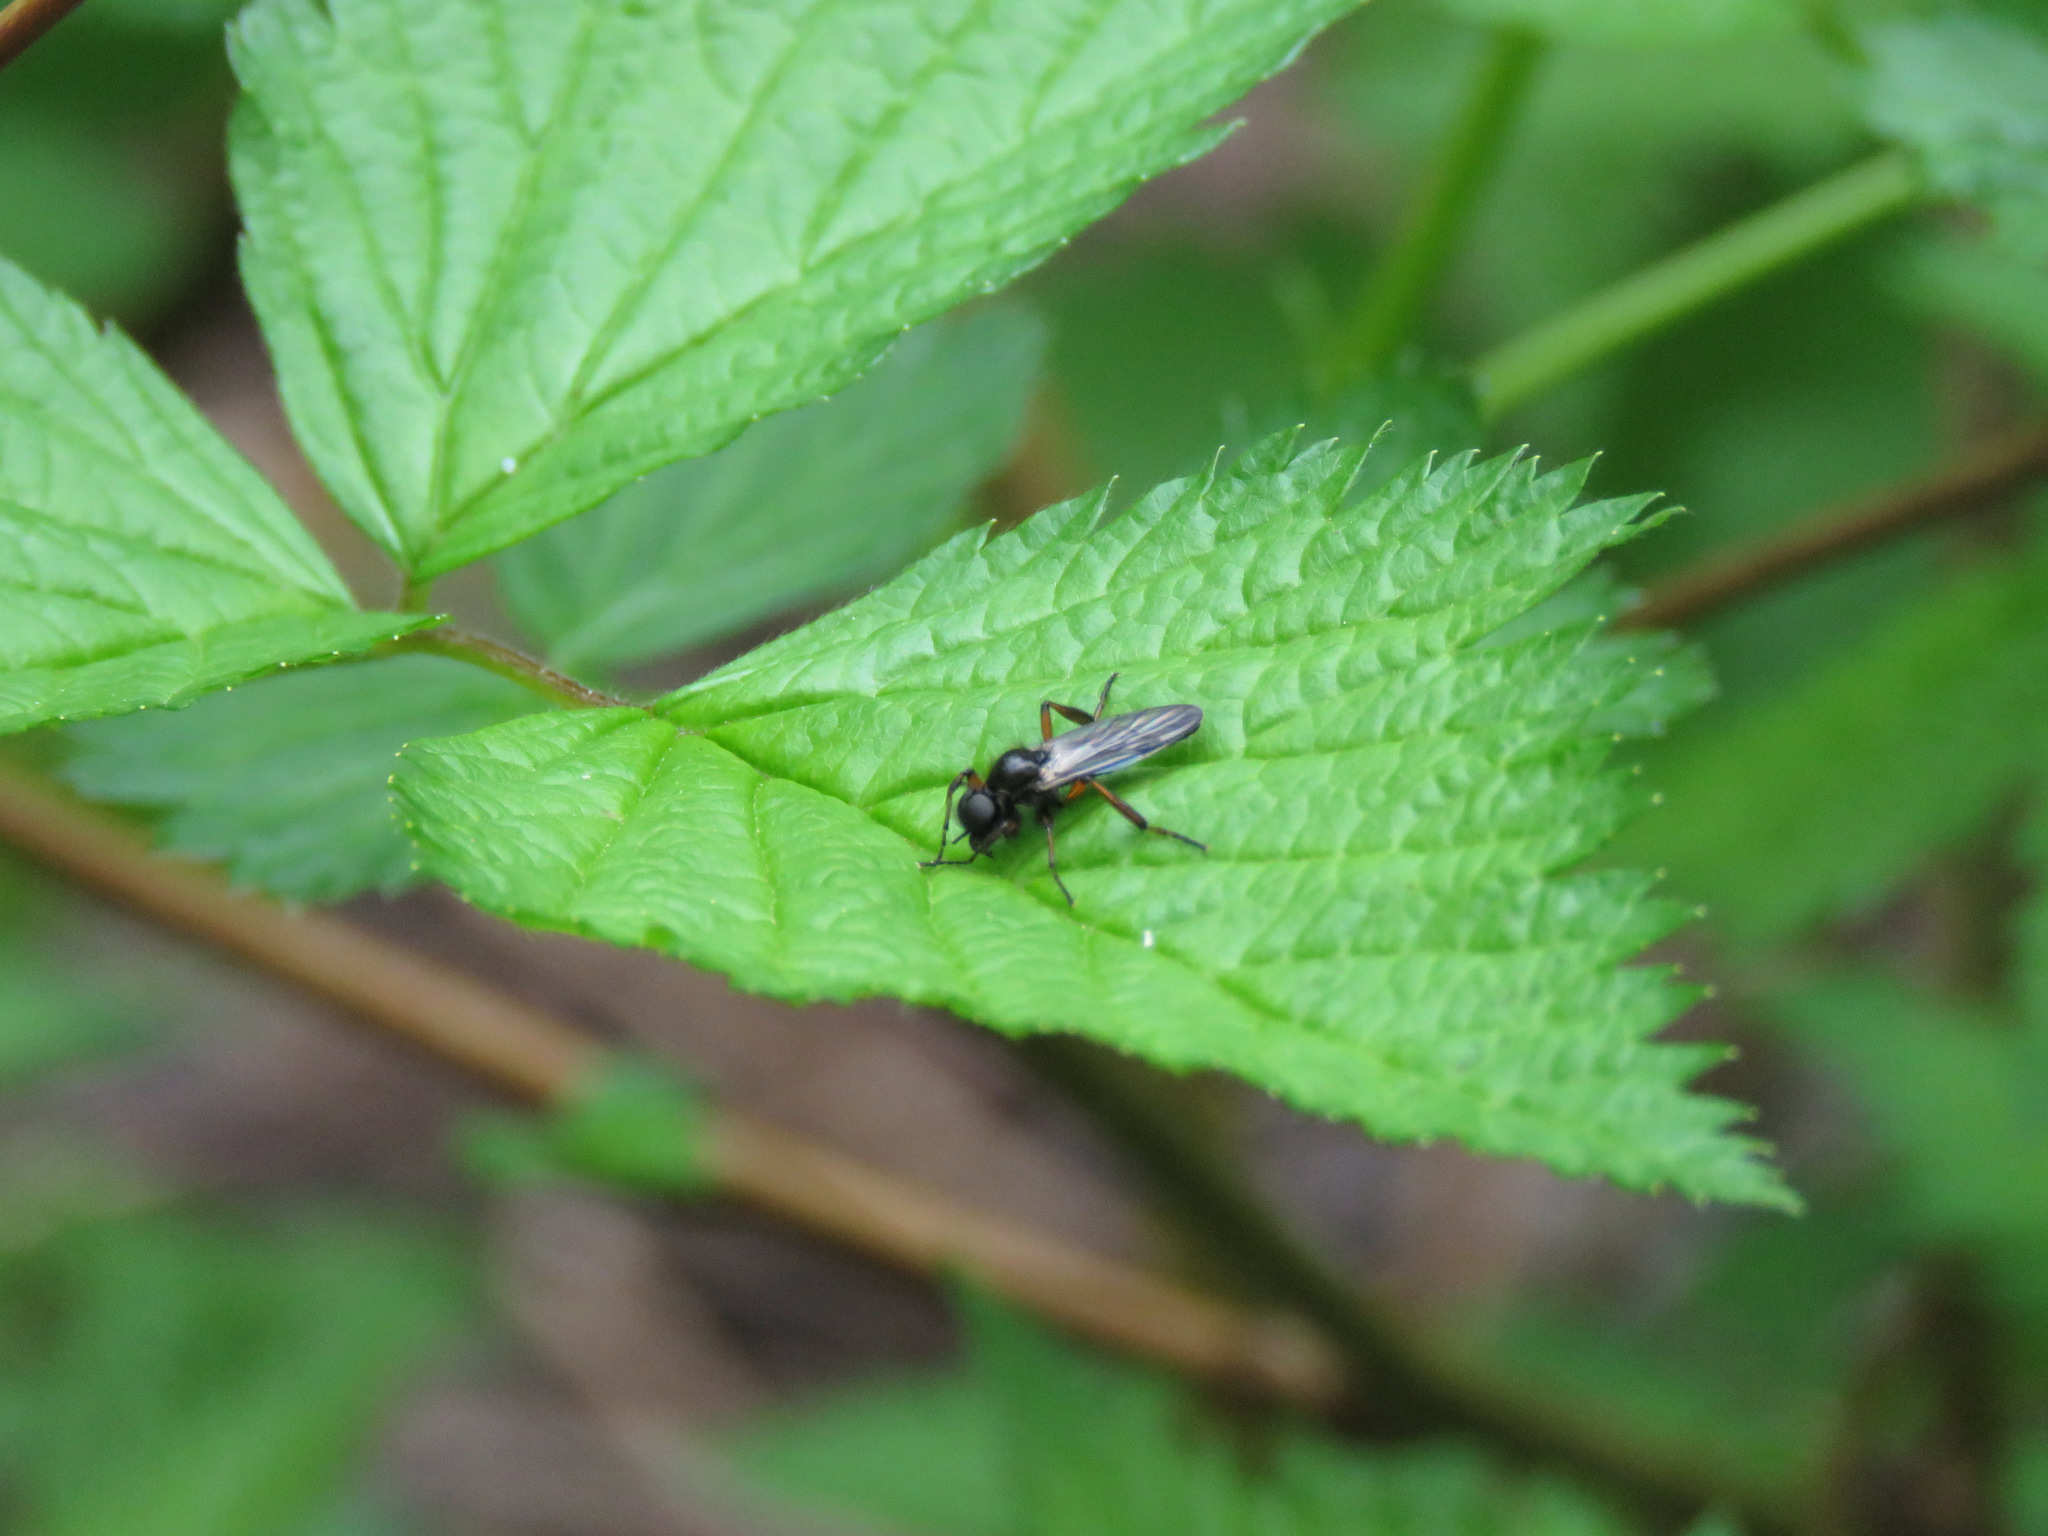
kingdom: Animalia
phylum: Arthropoda
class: Insecta
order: Diptera
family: Bibionidae
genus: Bibio
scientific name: Bibio
